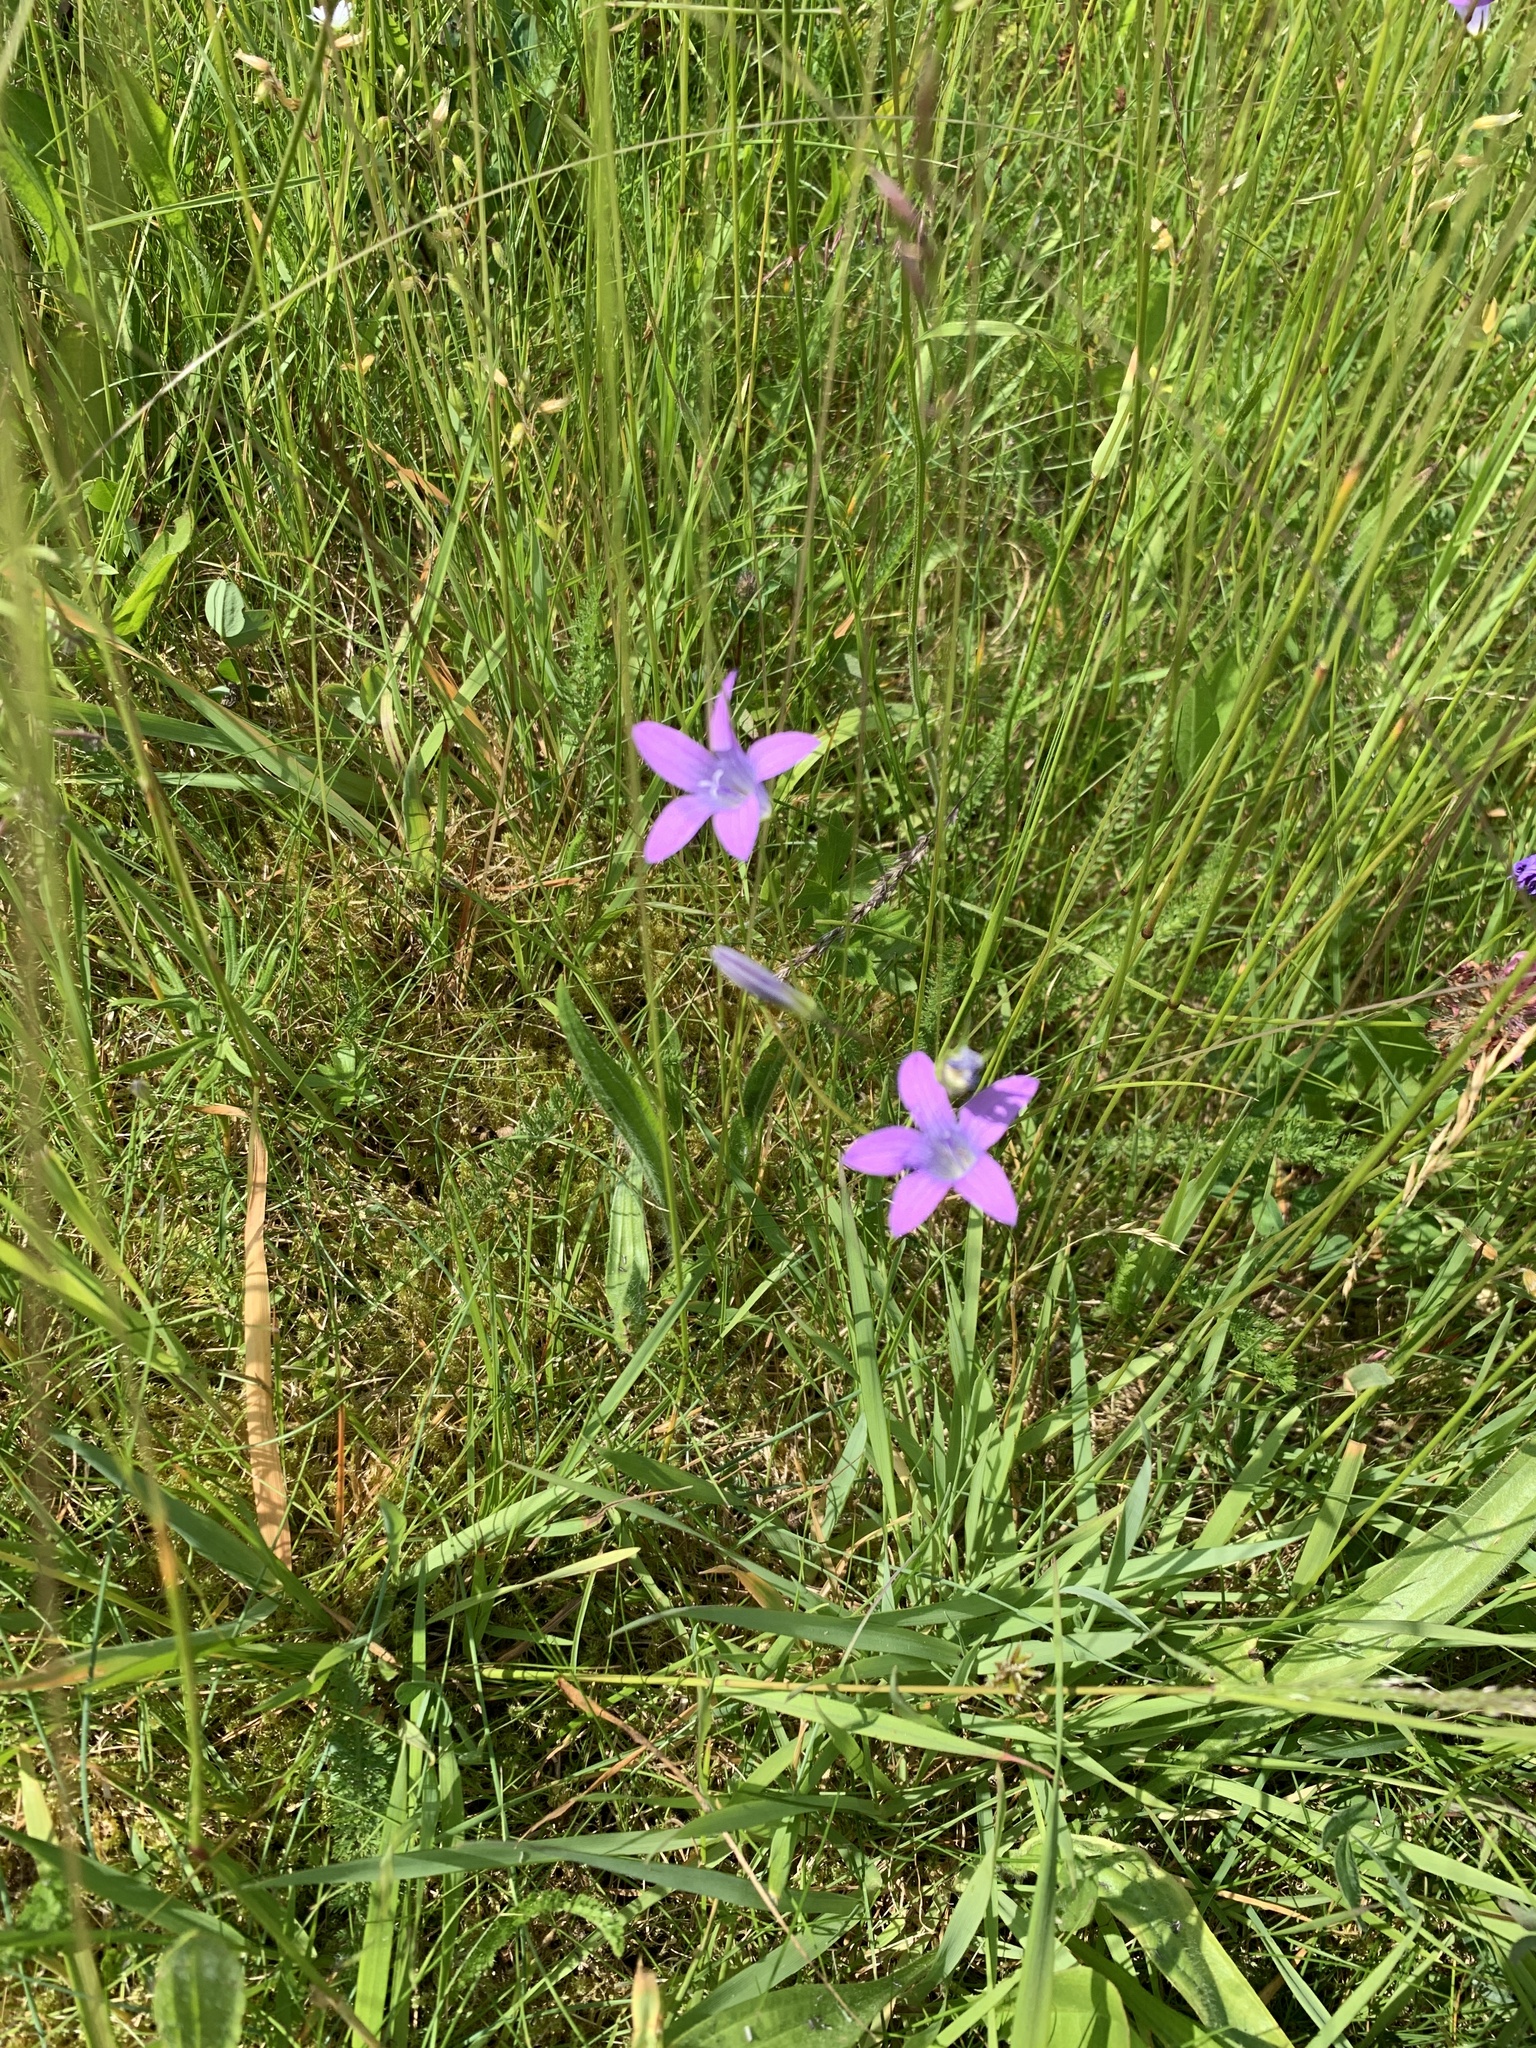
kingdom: Plantae
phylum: Tracheophyta
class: Magnoliopsida
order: Asterales
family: Campanulaceae
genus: Campanula
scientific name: Campanula patula
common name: Spreading bellflower
